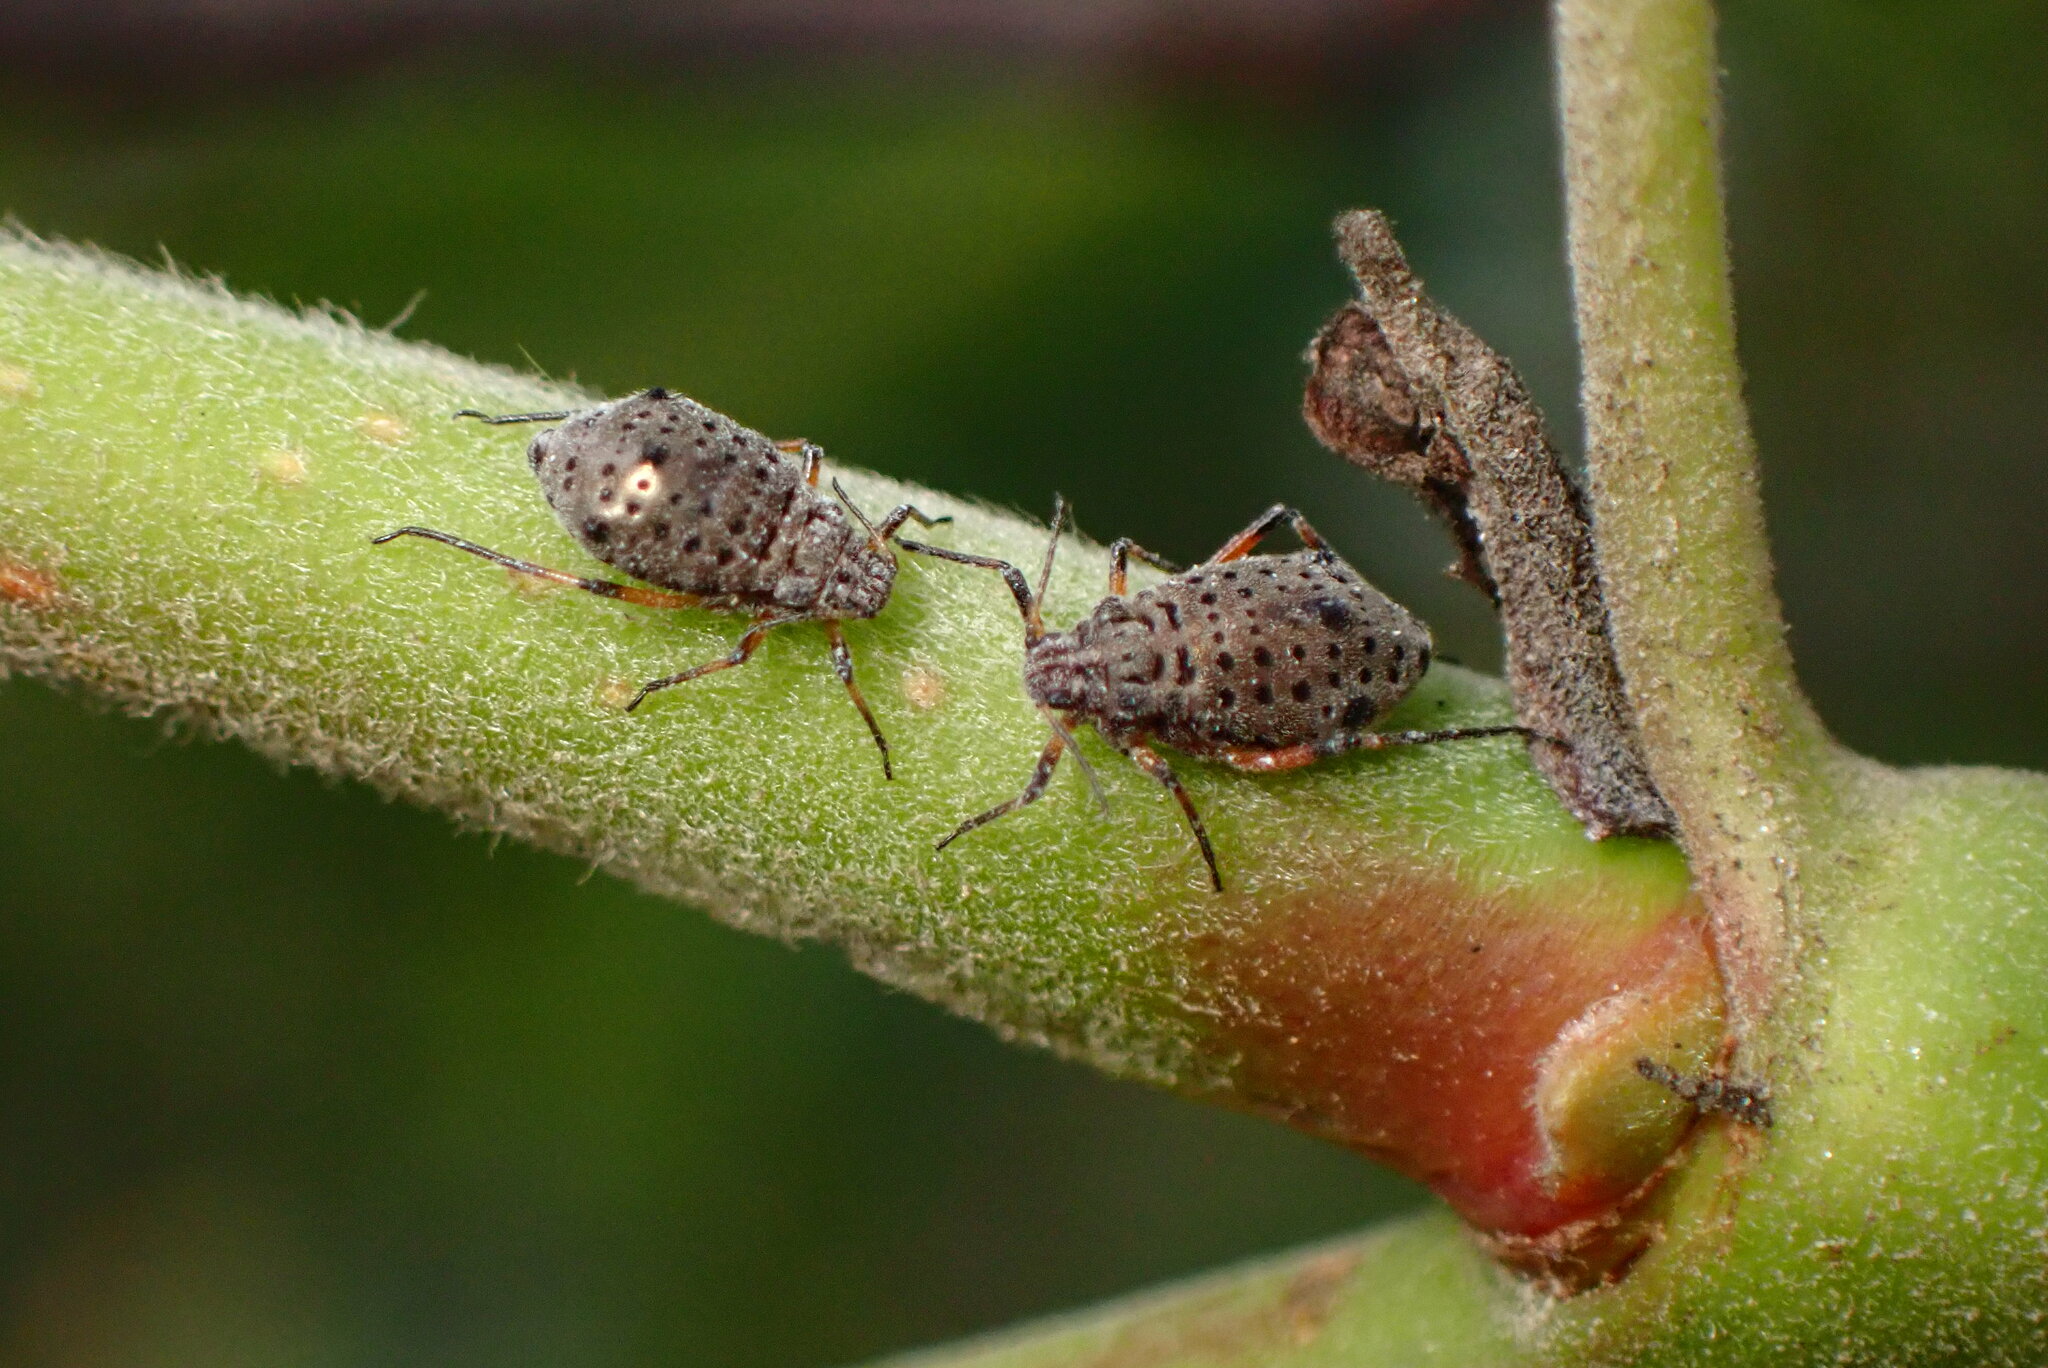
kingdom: Animalia
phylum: Arthropoda
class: Insecta
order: Hemiptera
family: Aphididae
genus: Tuberolachnus
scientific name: Tuberolachnus salignus
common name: Giant willow aphid
